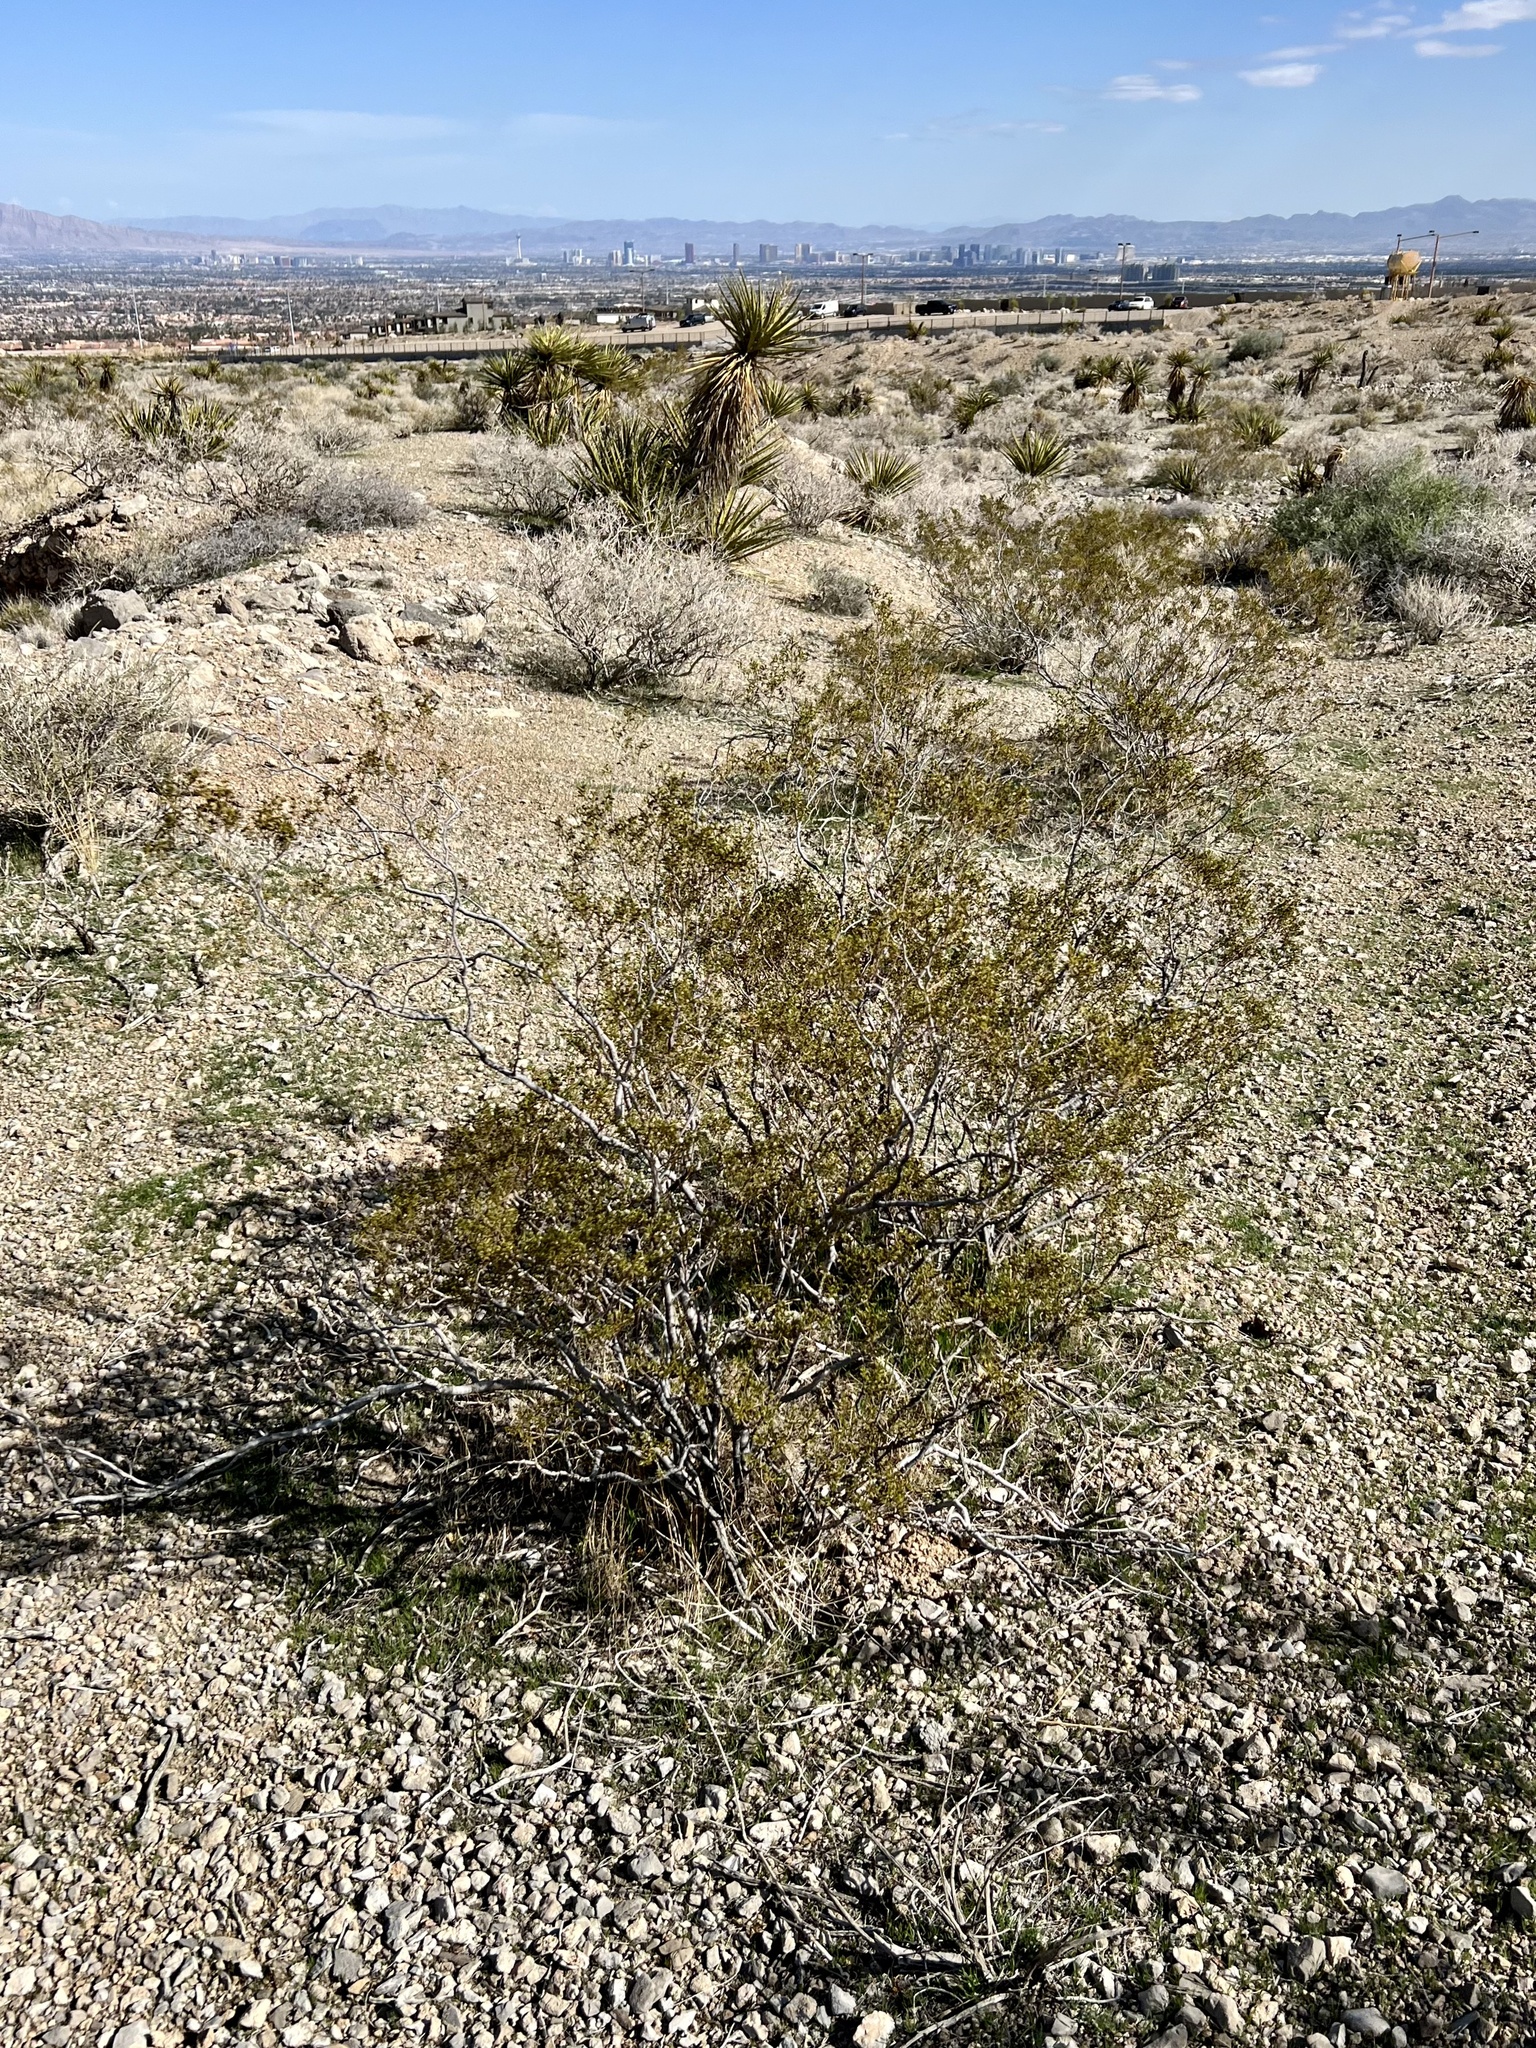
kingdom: Plantae
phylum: Tracheophyta
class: Magnoliopsida
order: Zygophyllales
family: Zygophyllaceae
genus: Larrea
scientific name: Larrea tridentata
